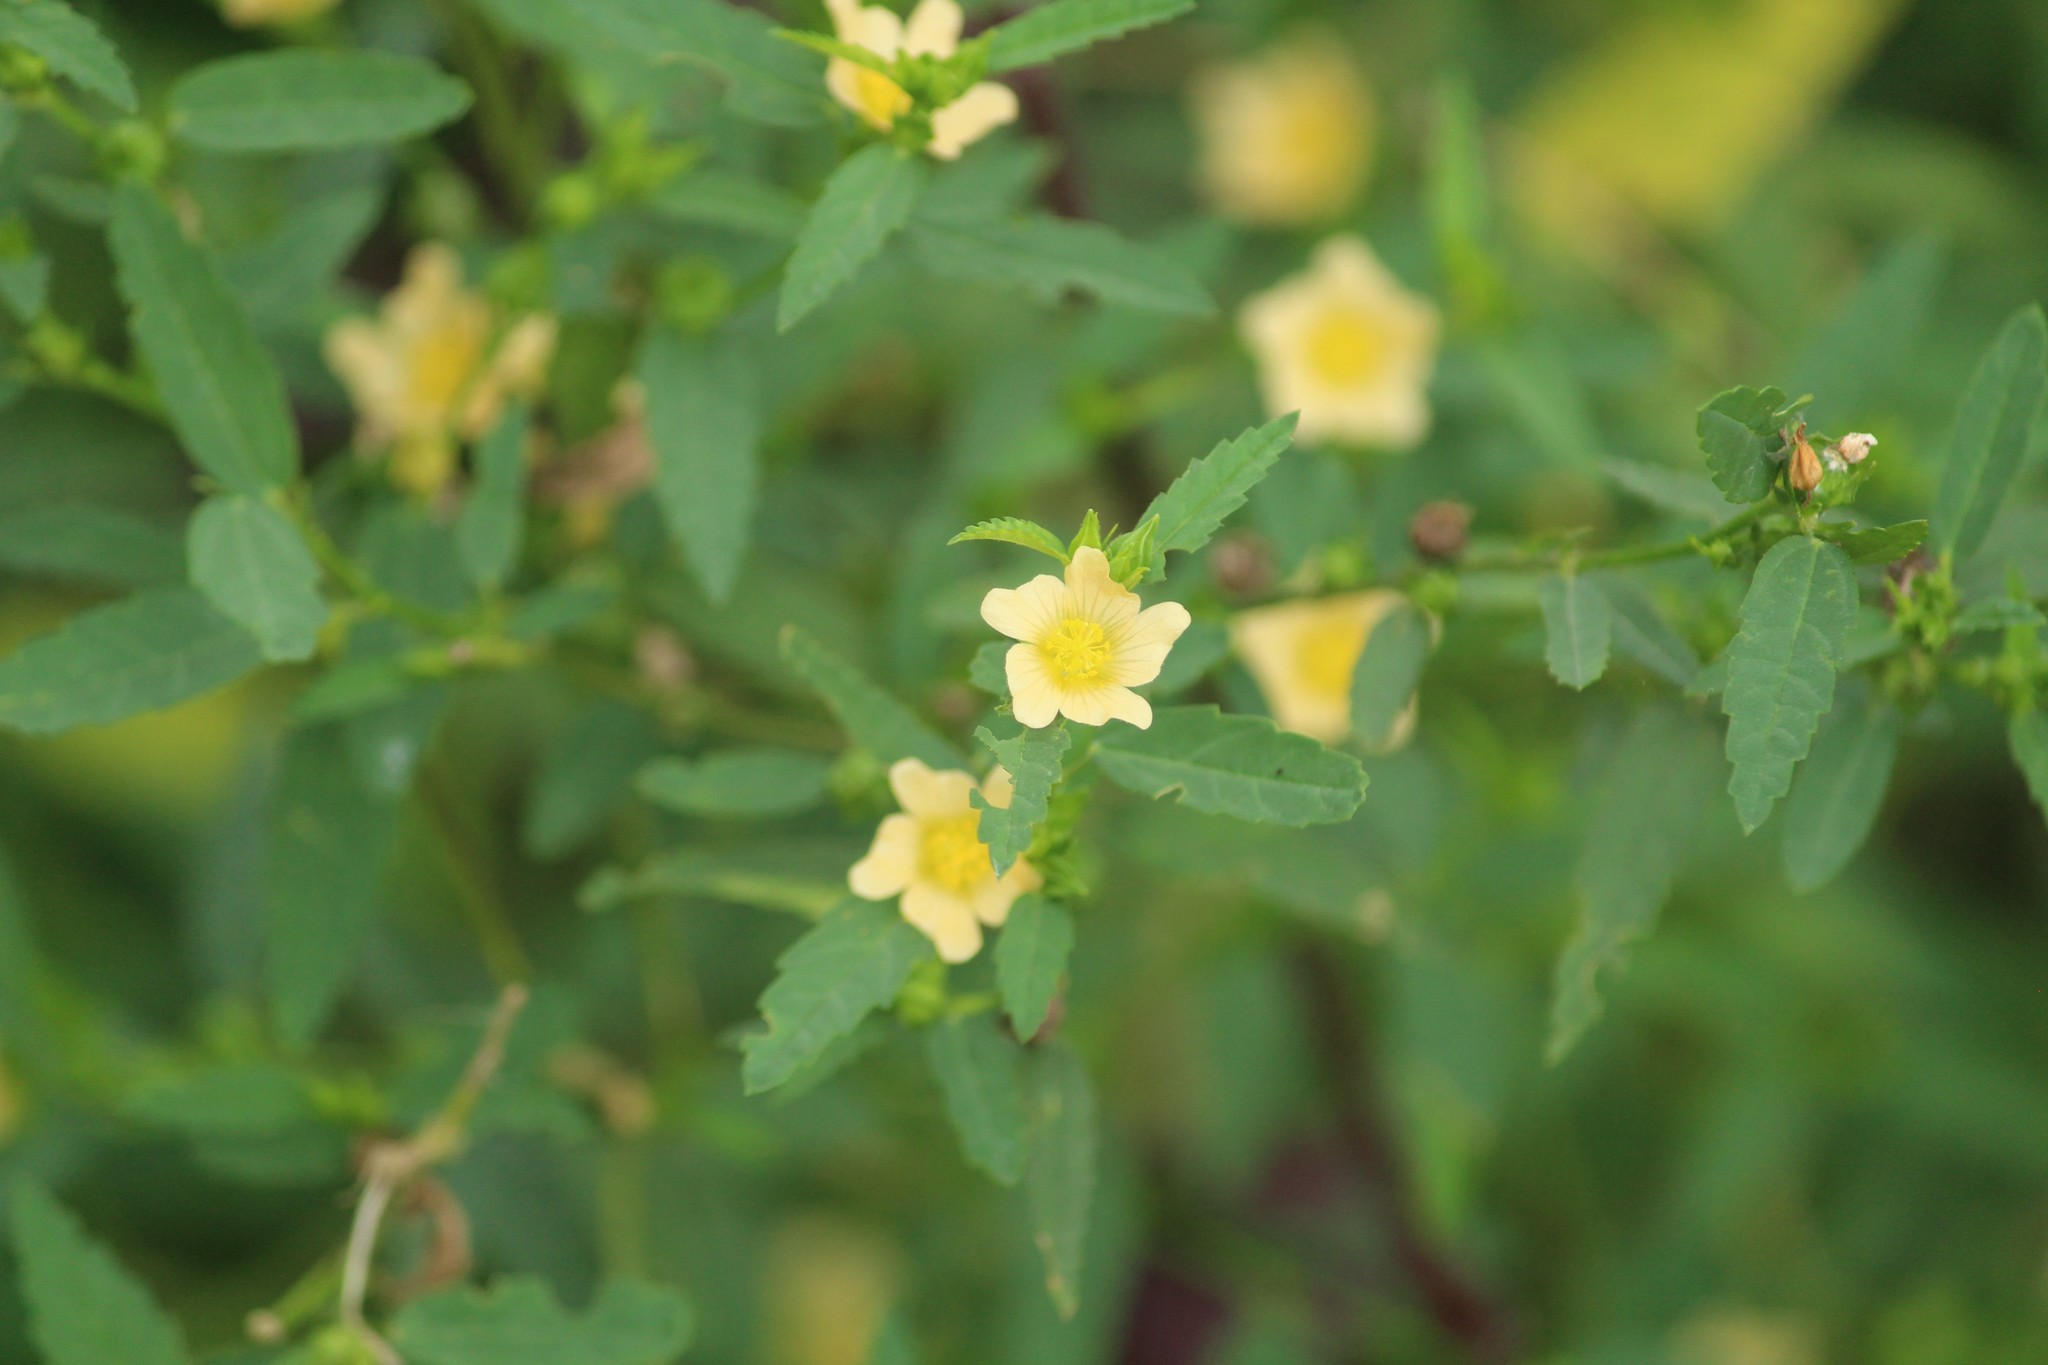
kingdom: Plantae
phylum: Tracheophyta
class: Magnoliopsida
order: Malvales
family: Malvaceae
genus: Sida
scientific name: Sida acuta
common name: Common wireweed
